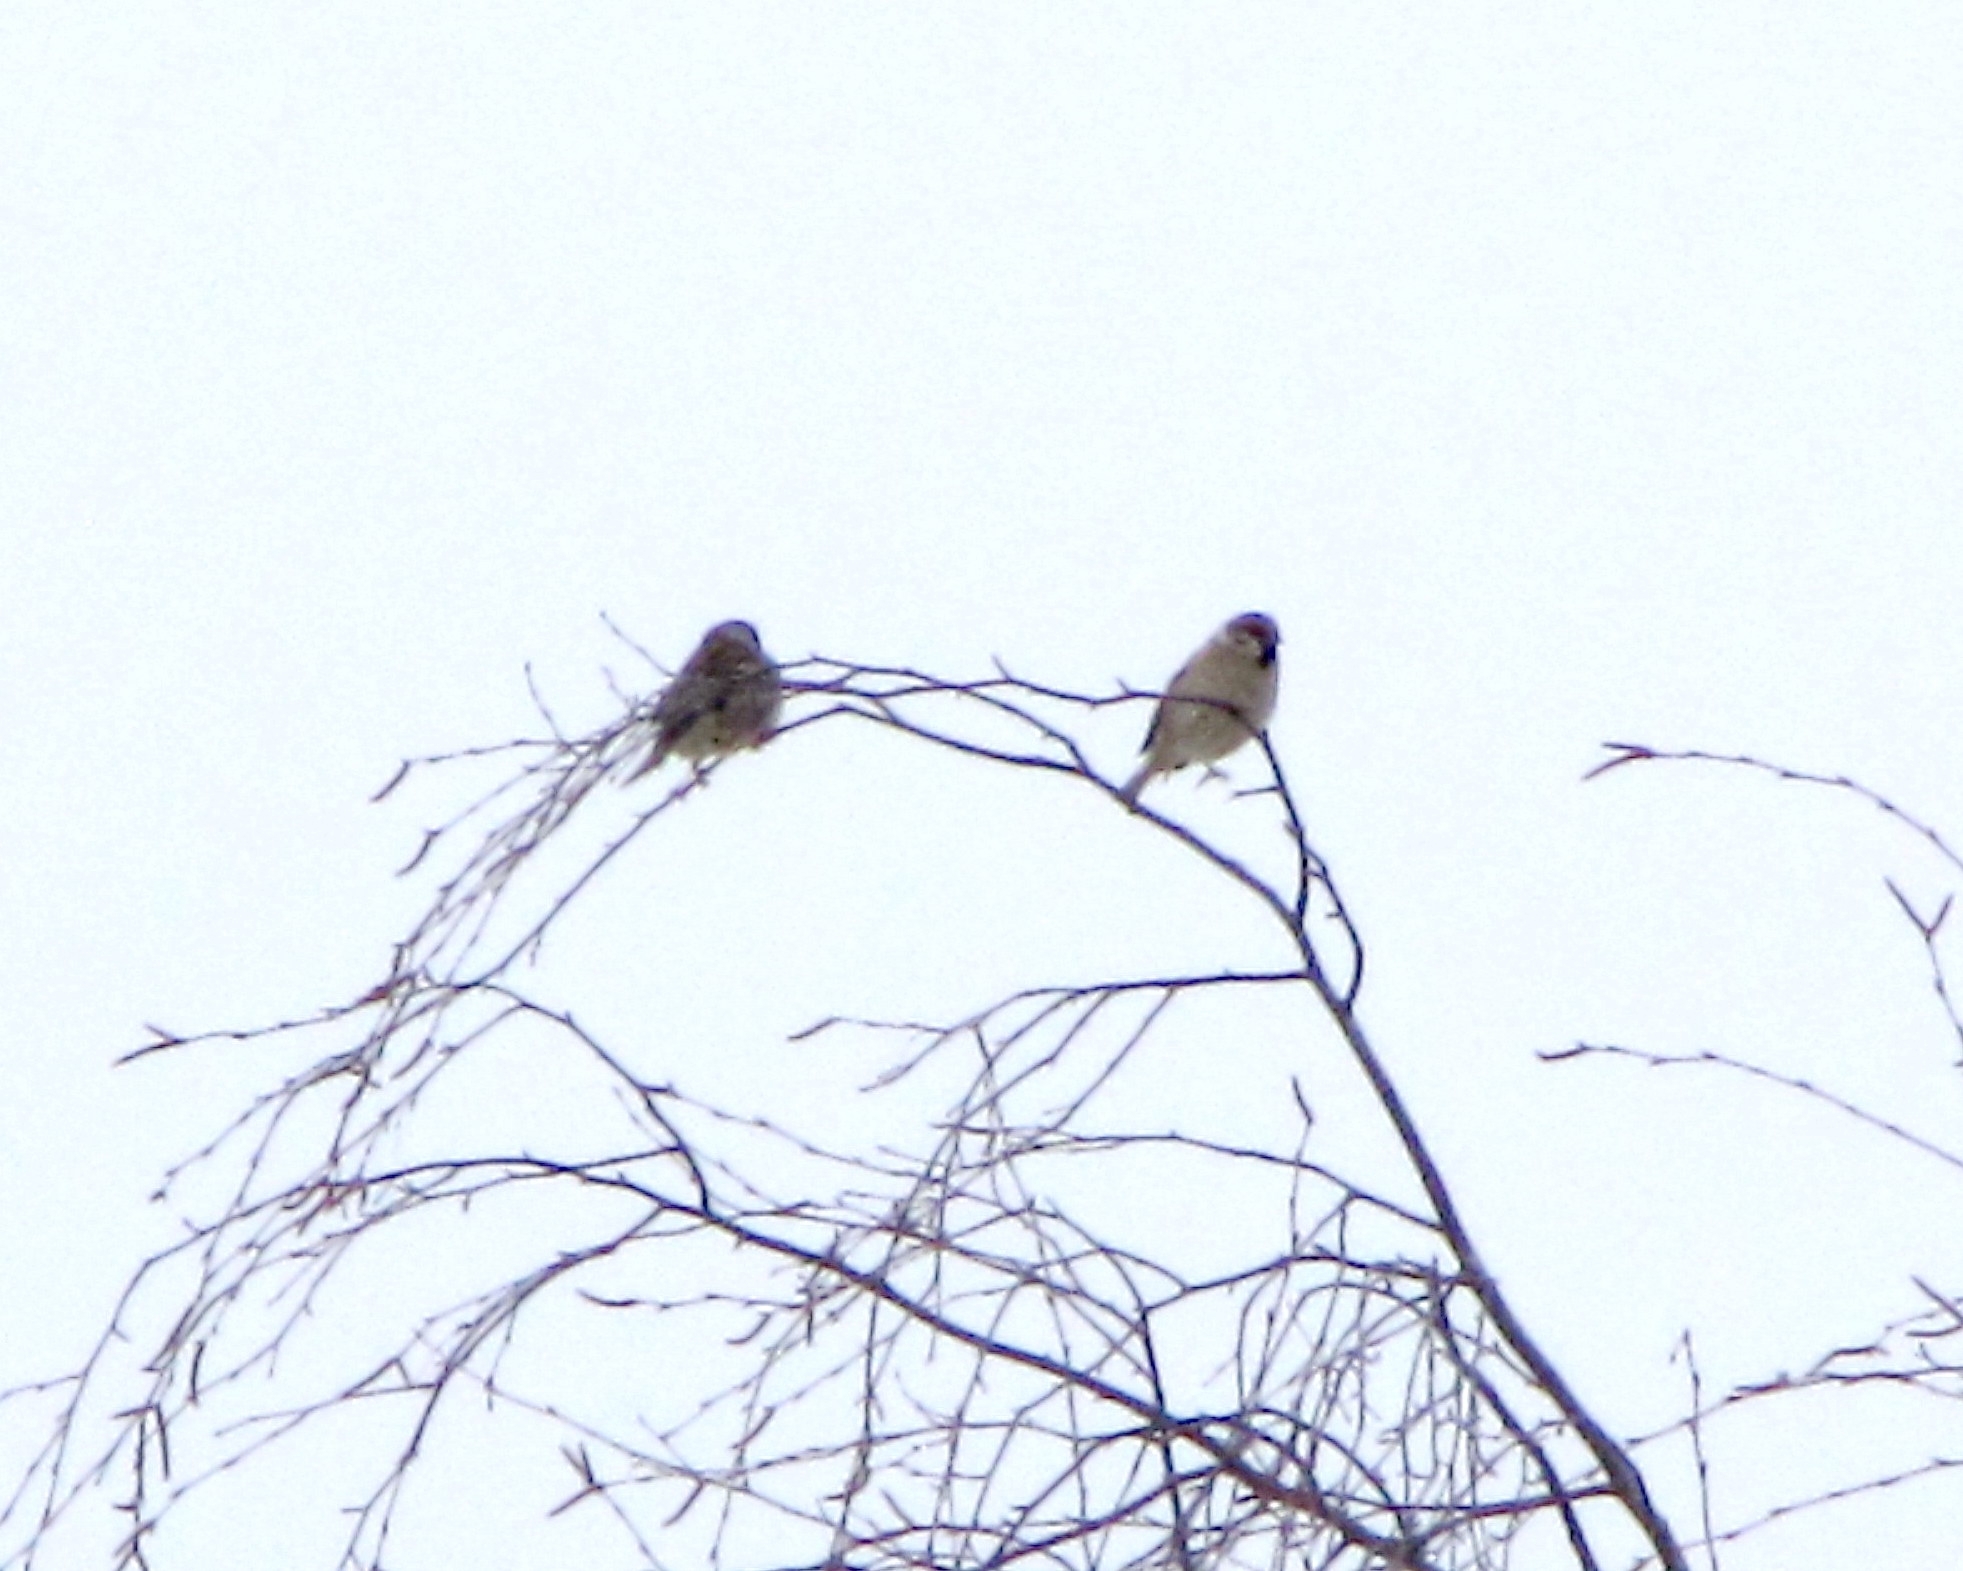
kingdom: Animalia
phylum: Chordata
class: Aves
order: Passeriformes
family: Passeridae
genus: Passer
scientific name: Passer montanus
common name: Eurasian tree sparrow
